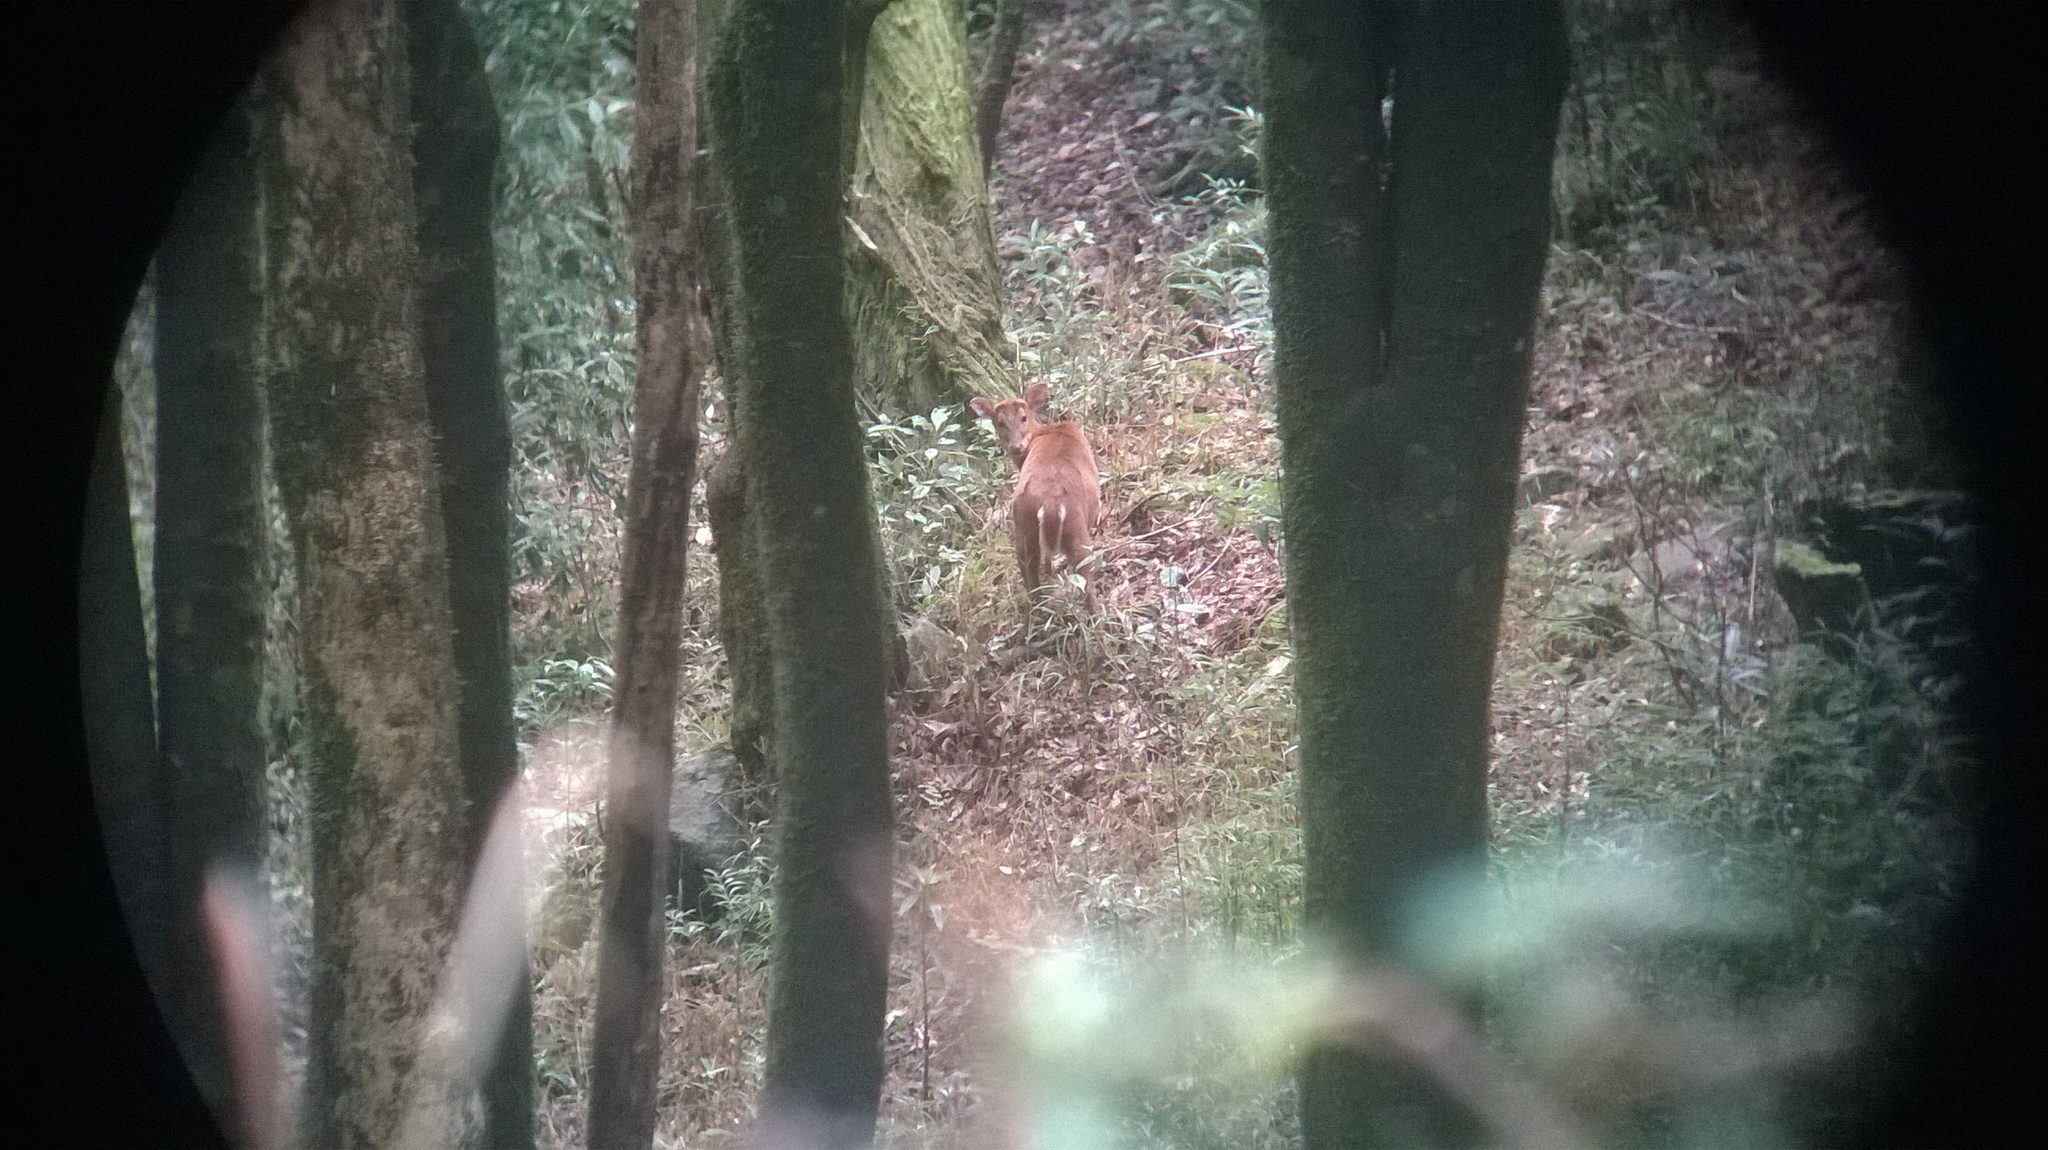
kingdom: Animalia
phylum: Chordata
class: Mammalia
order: Artiodactyla
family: Cervidae
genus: Muntiacus
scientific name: Muntiacus muntjak
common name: Indian muntjac
